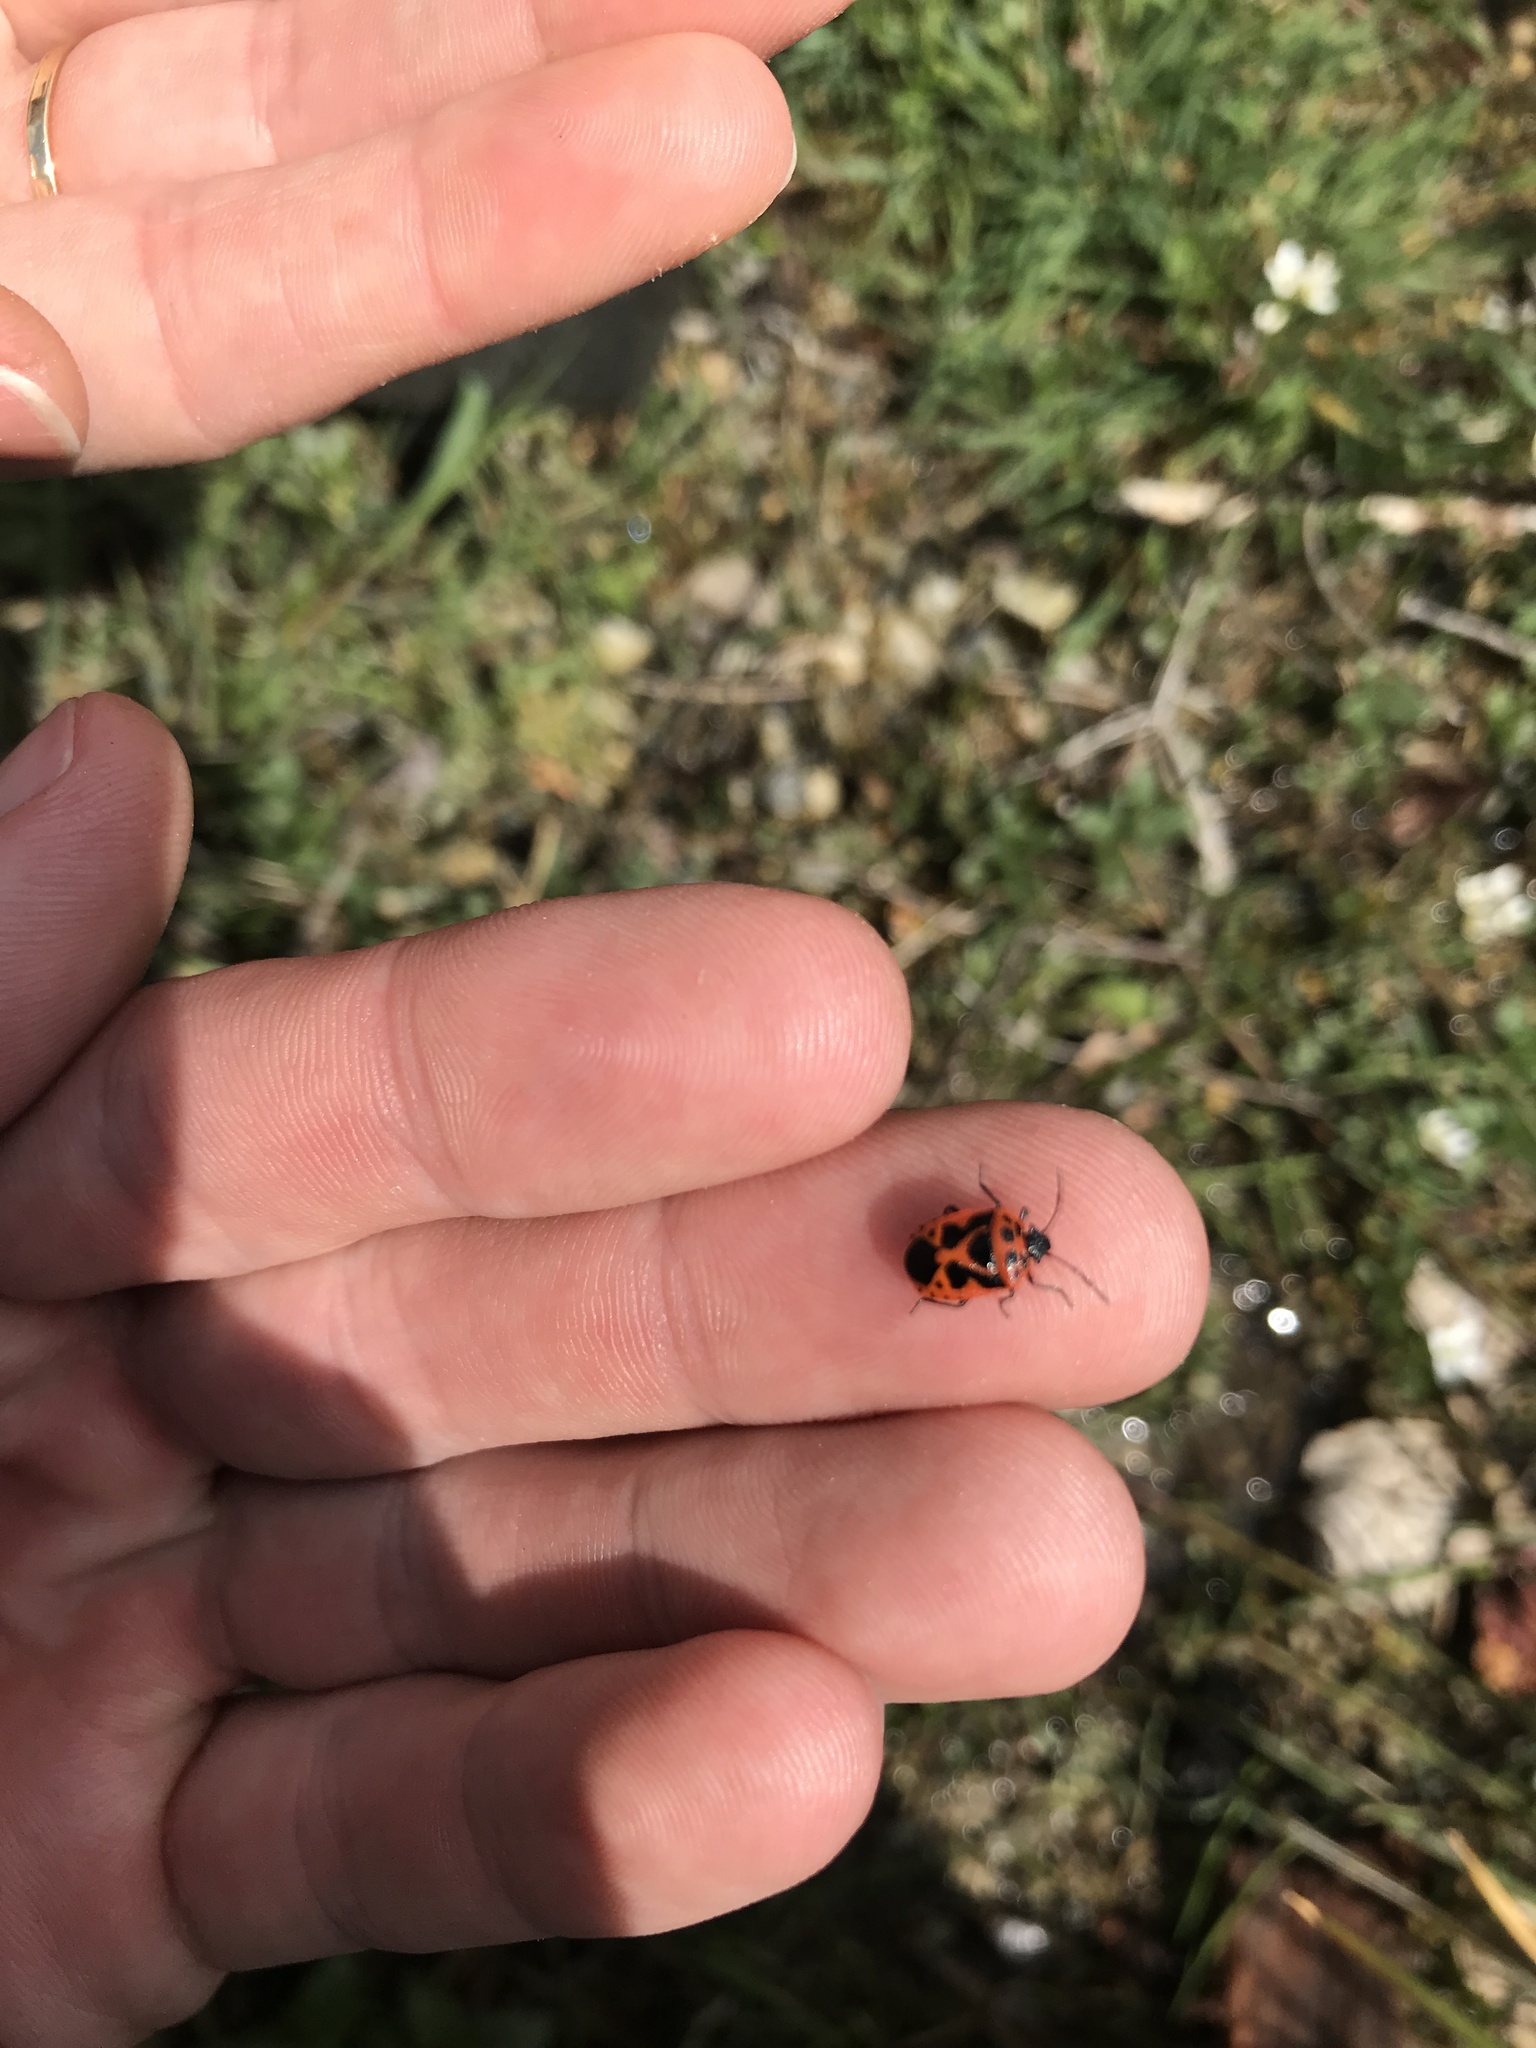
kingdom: Animalia
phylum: Arthropoda
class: Insecta
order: Hemiptera
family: Pentatomidae
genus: Eurydema
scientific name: Eurydema dominulus
